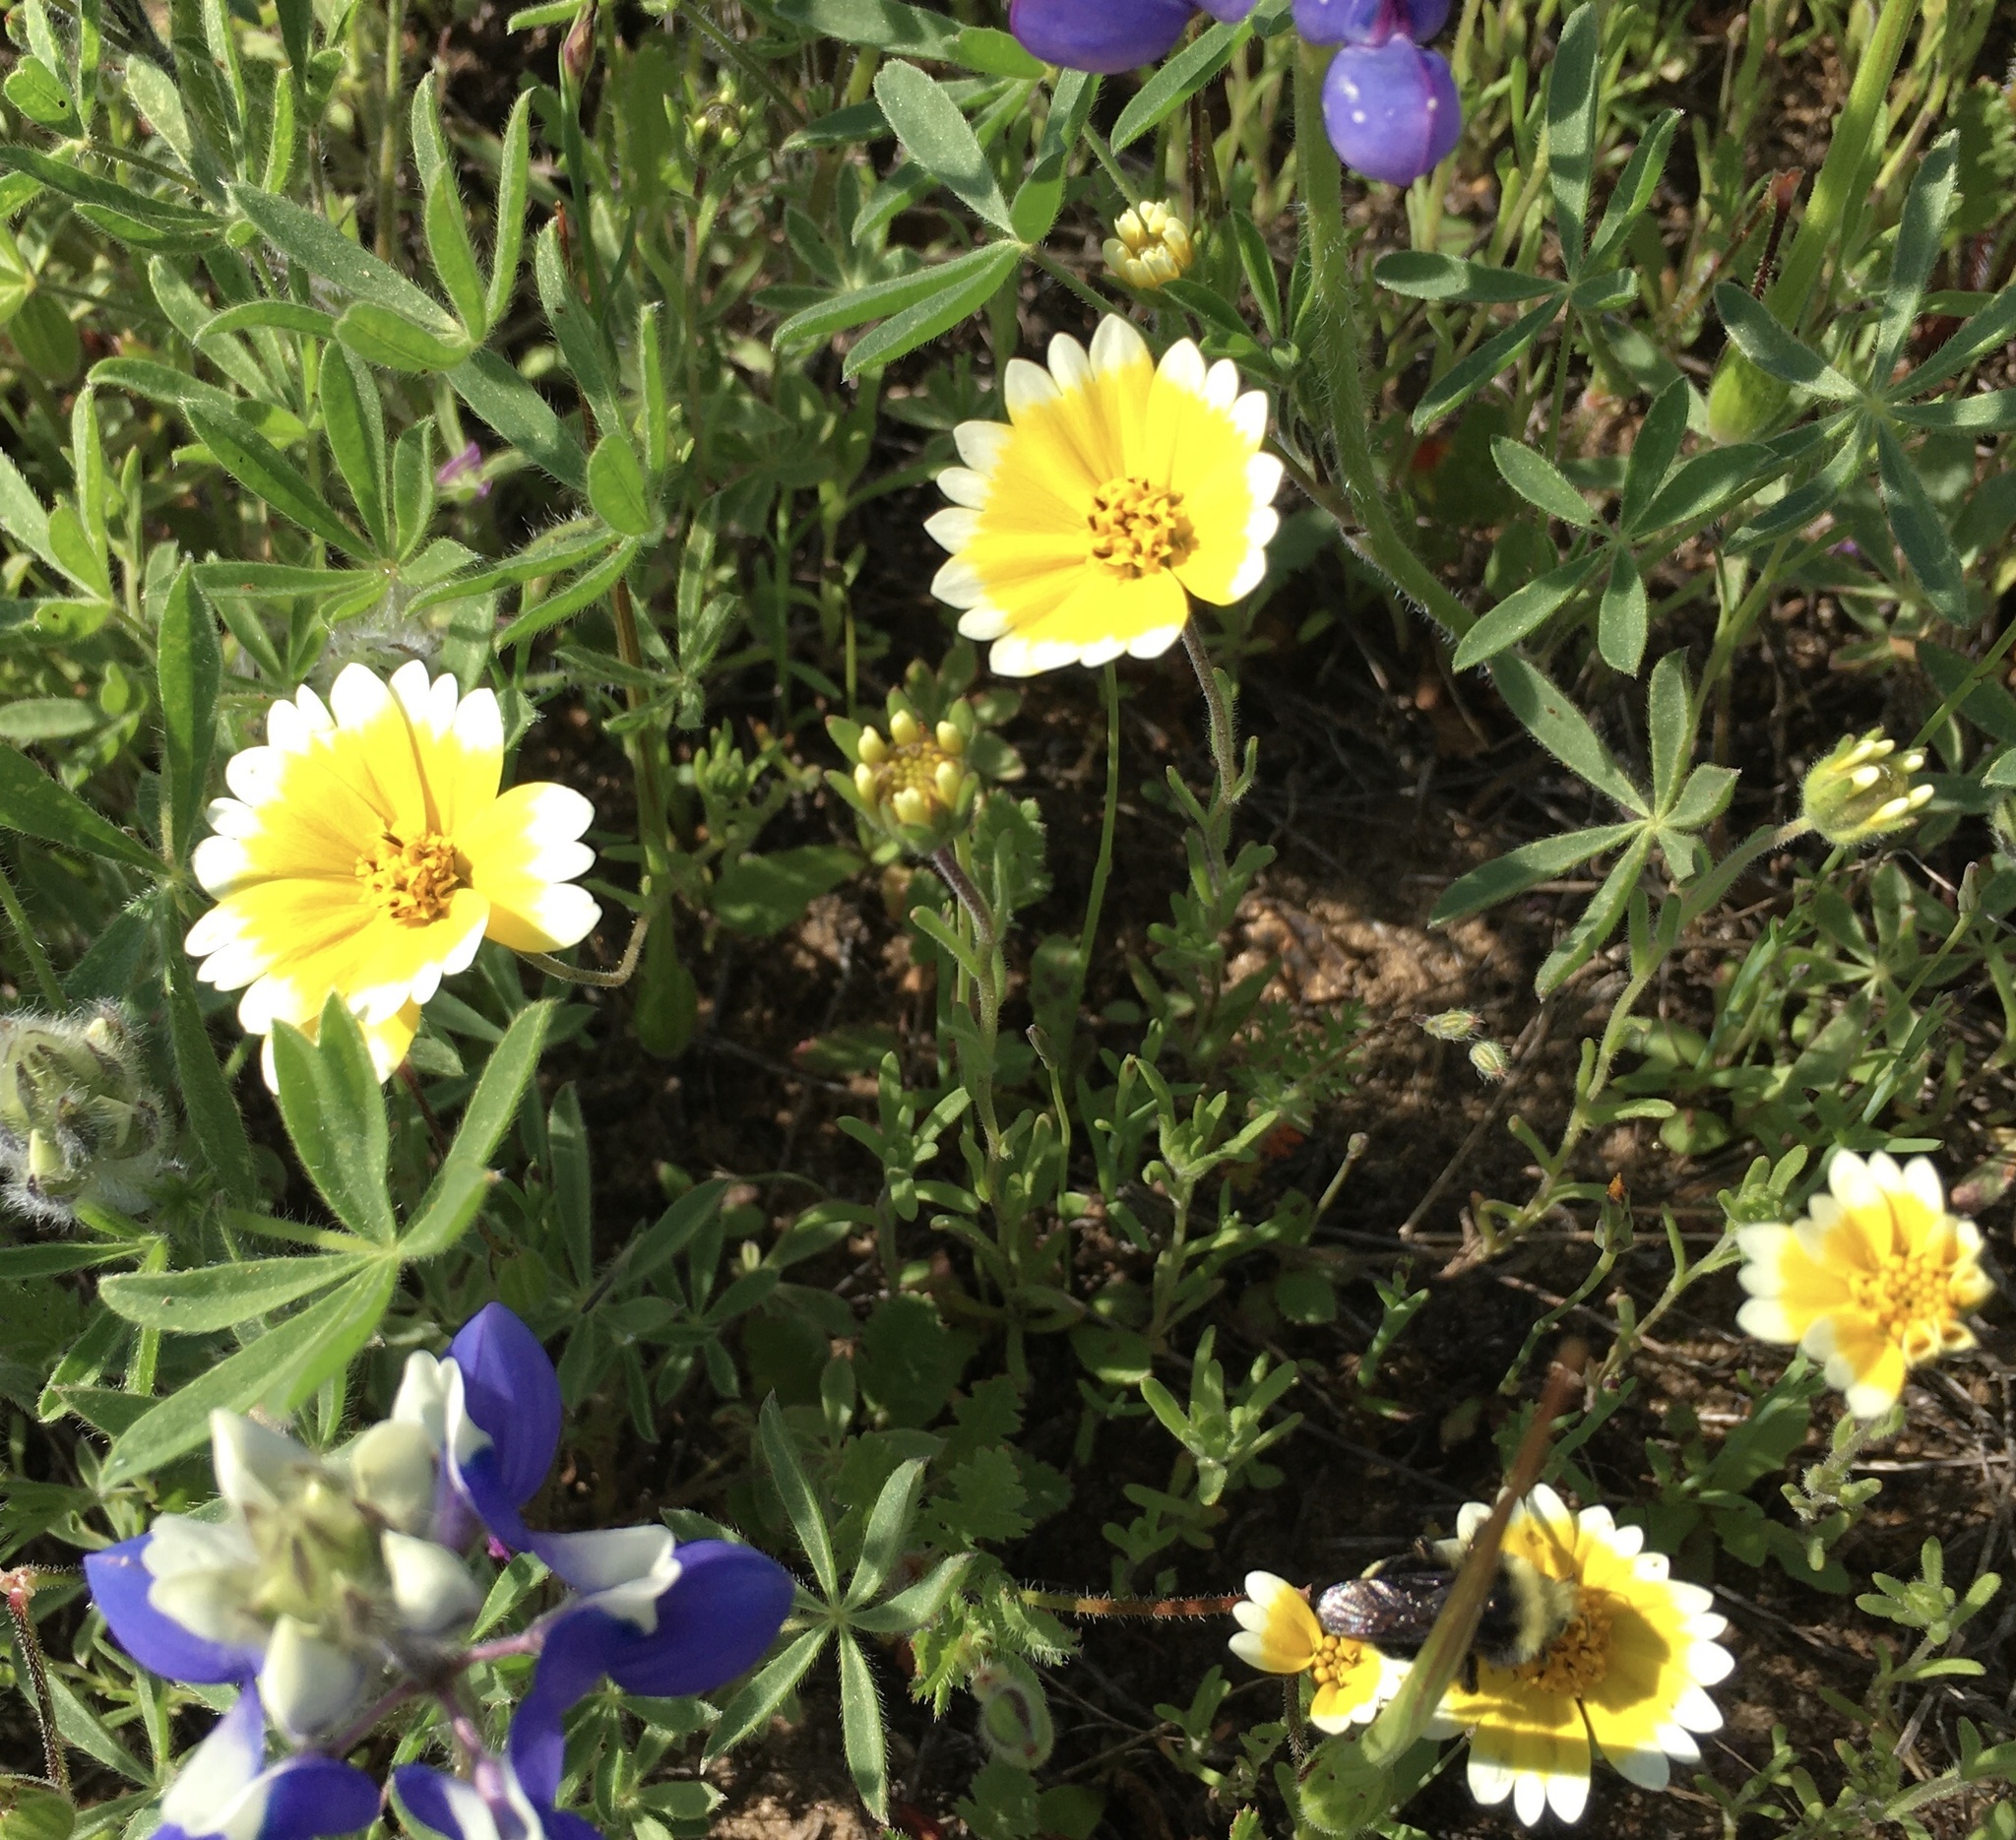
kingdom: Plantae
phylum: Tracheophyta
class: Magnoliopsida
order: Asterales
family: Asteraceae
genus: Layia
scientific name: Layia platyglossa
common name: Tidy-tips
